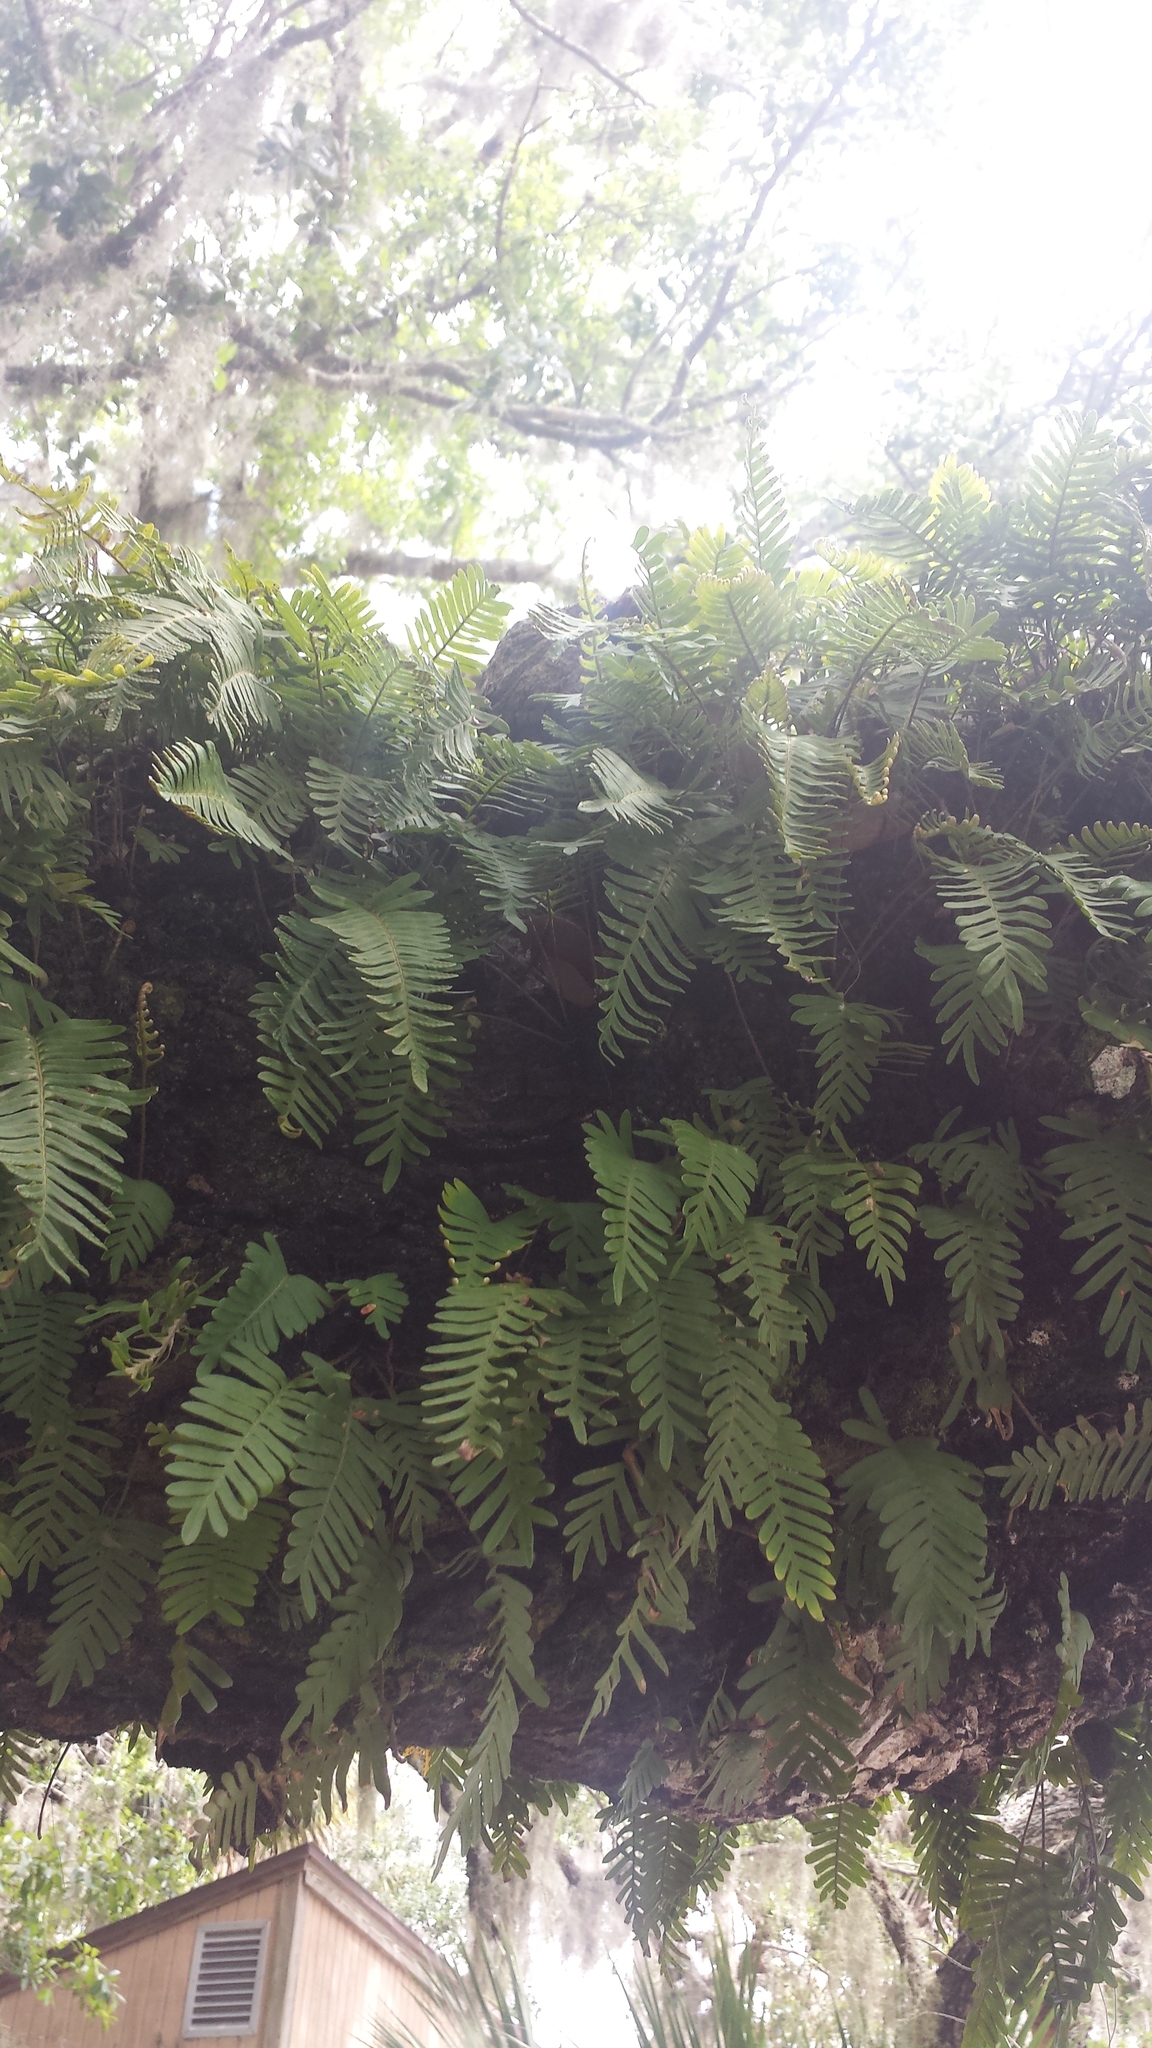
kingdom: Plantae
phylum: Tracheophyta
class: Polypodiopsida
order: Polypodiales
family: Polypodiaceae
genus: Pleopeltis
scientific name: Pleopeltis michauxiana
